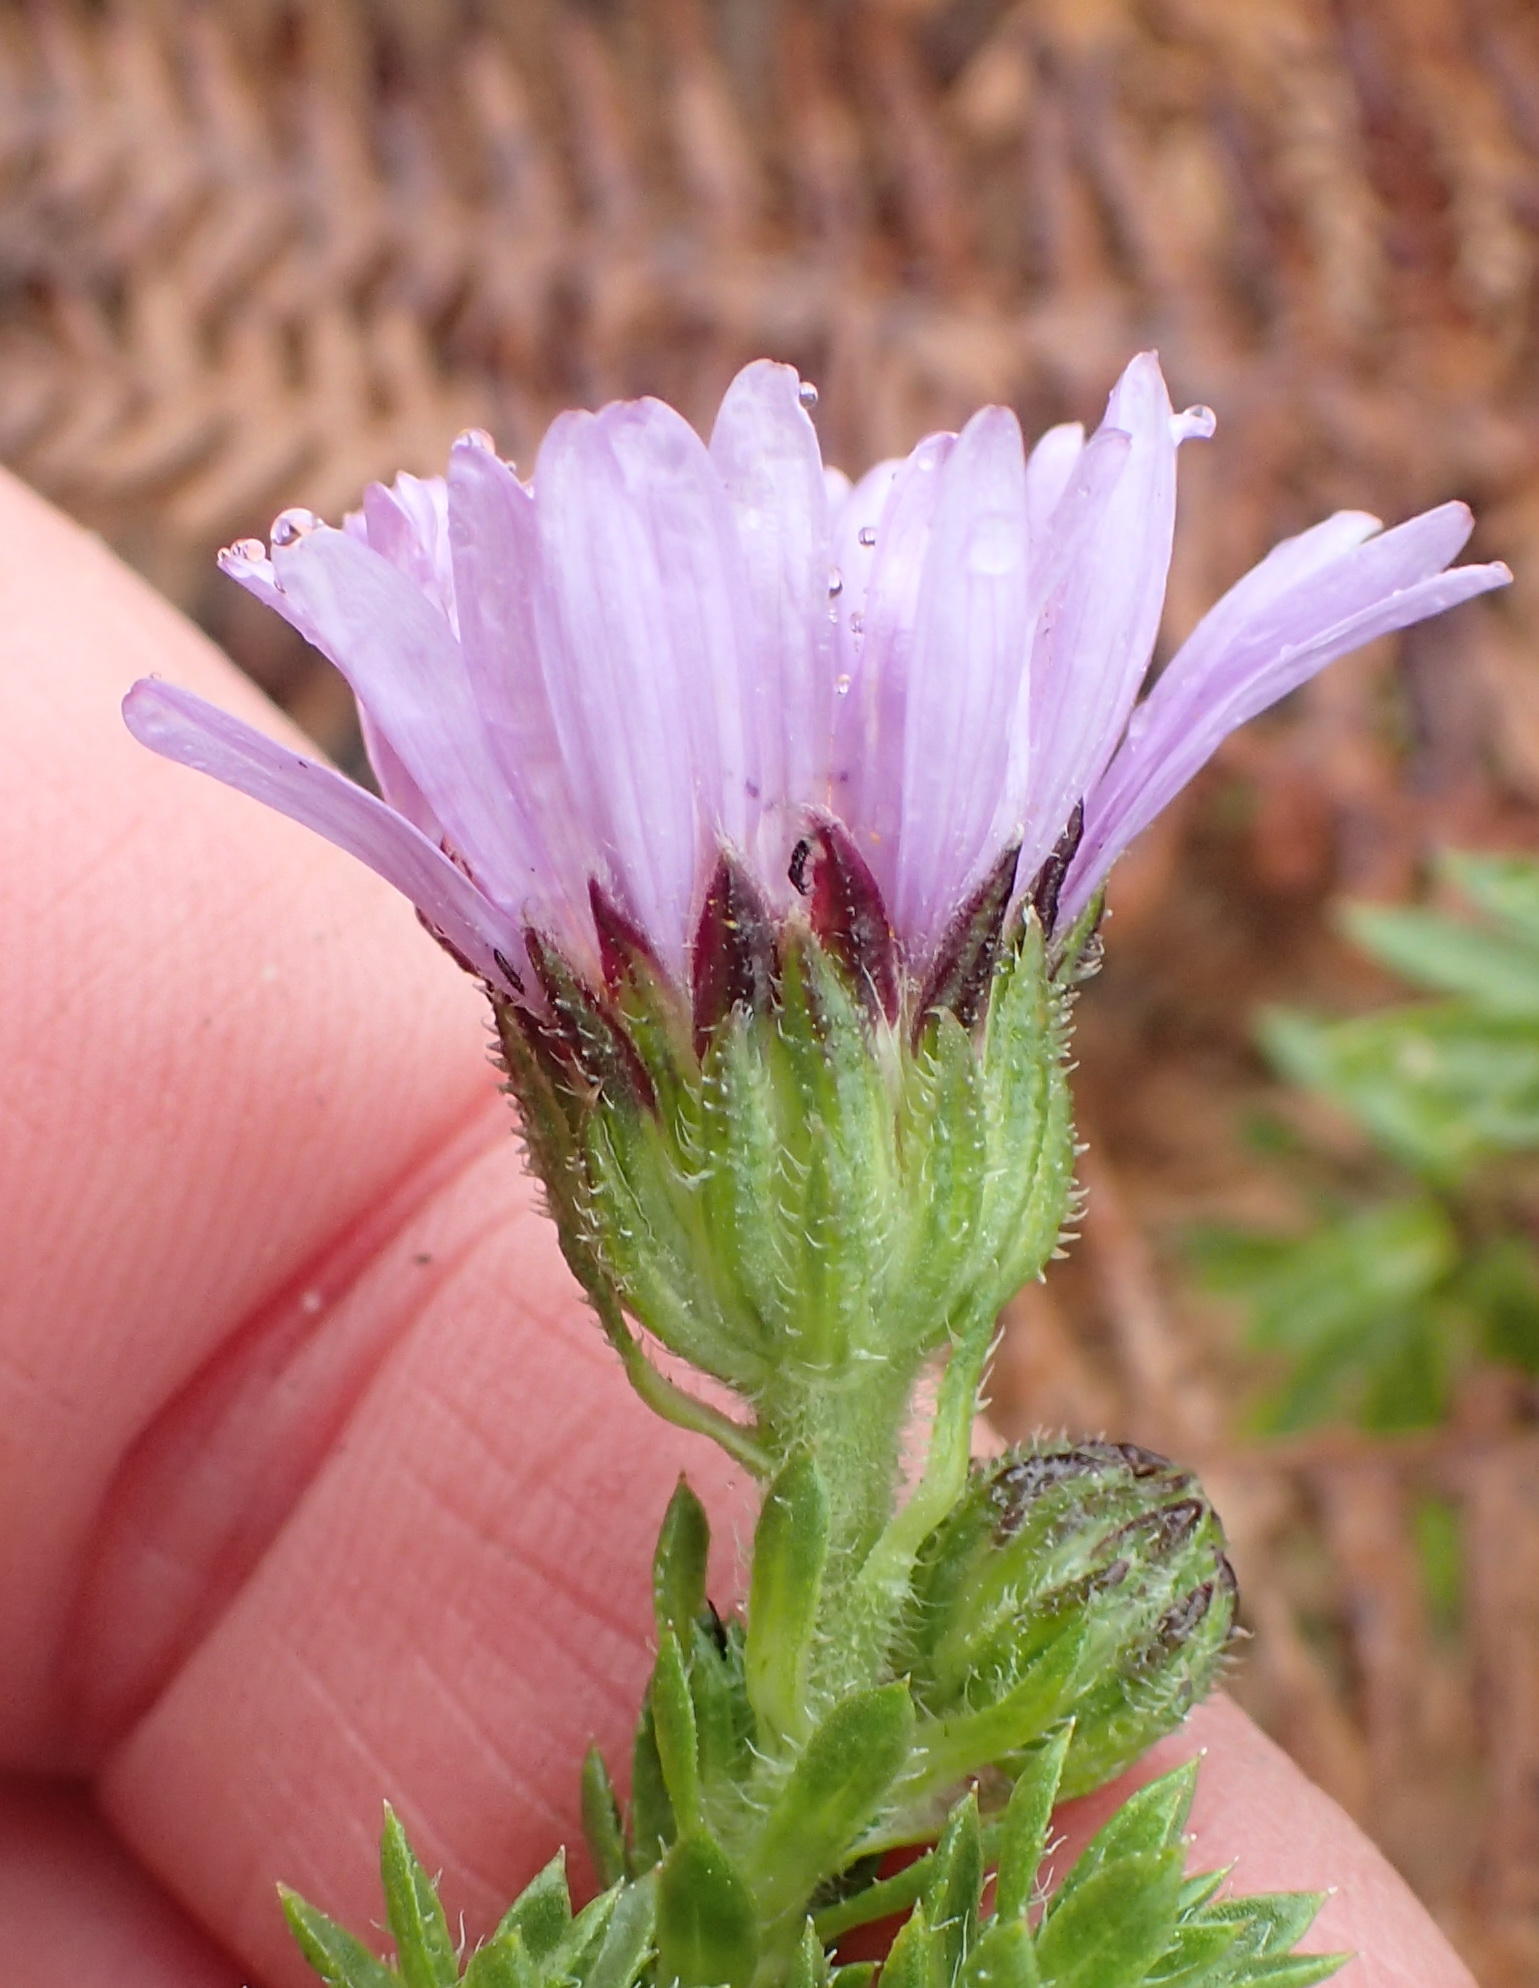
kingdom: Plantae
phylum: Tracheophyta
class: Magnoliopsida
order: Asterales
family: Asteraceae
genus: Felicia
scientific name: Felicia echinata
